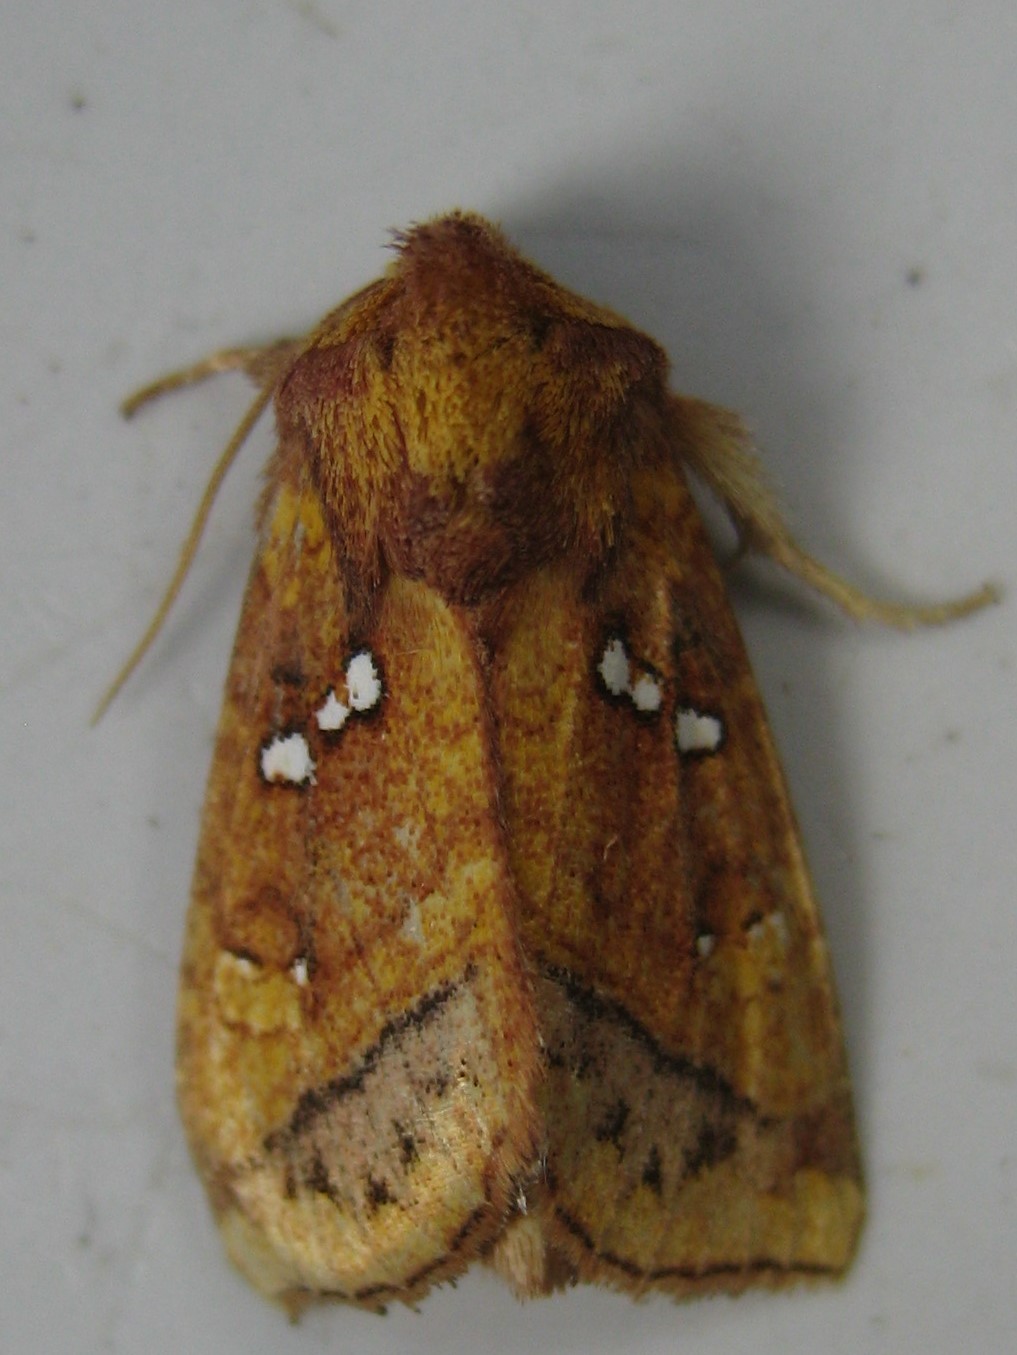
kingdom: Animalia
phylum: Arthropoda
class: Insecta
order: Lepidoptera
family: Noctuidae
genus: Papaipema
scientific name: Papaipema lysimachiae
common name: Loosestrife borer moth
